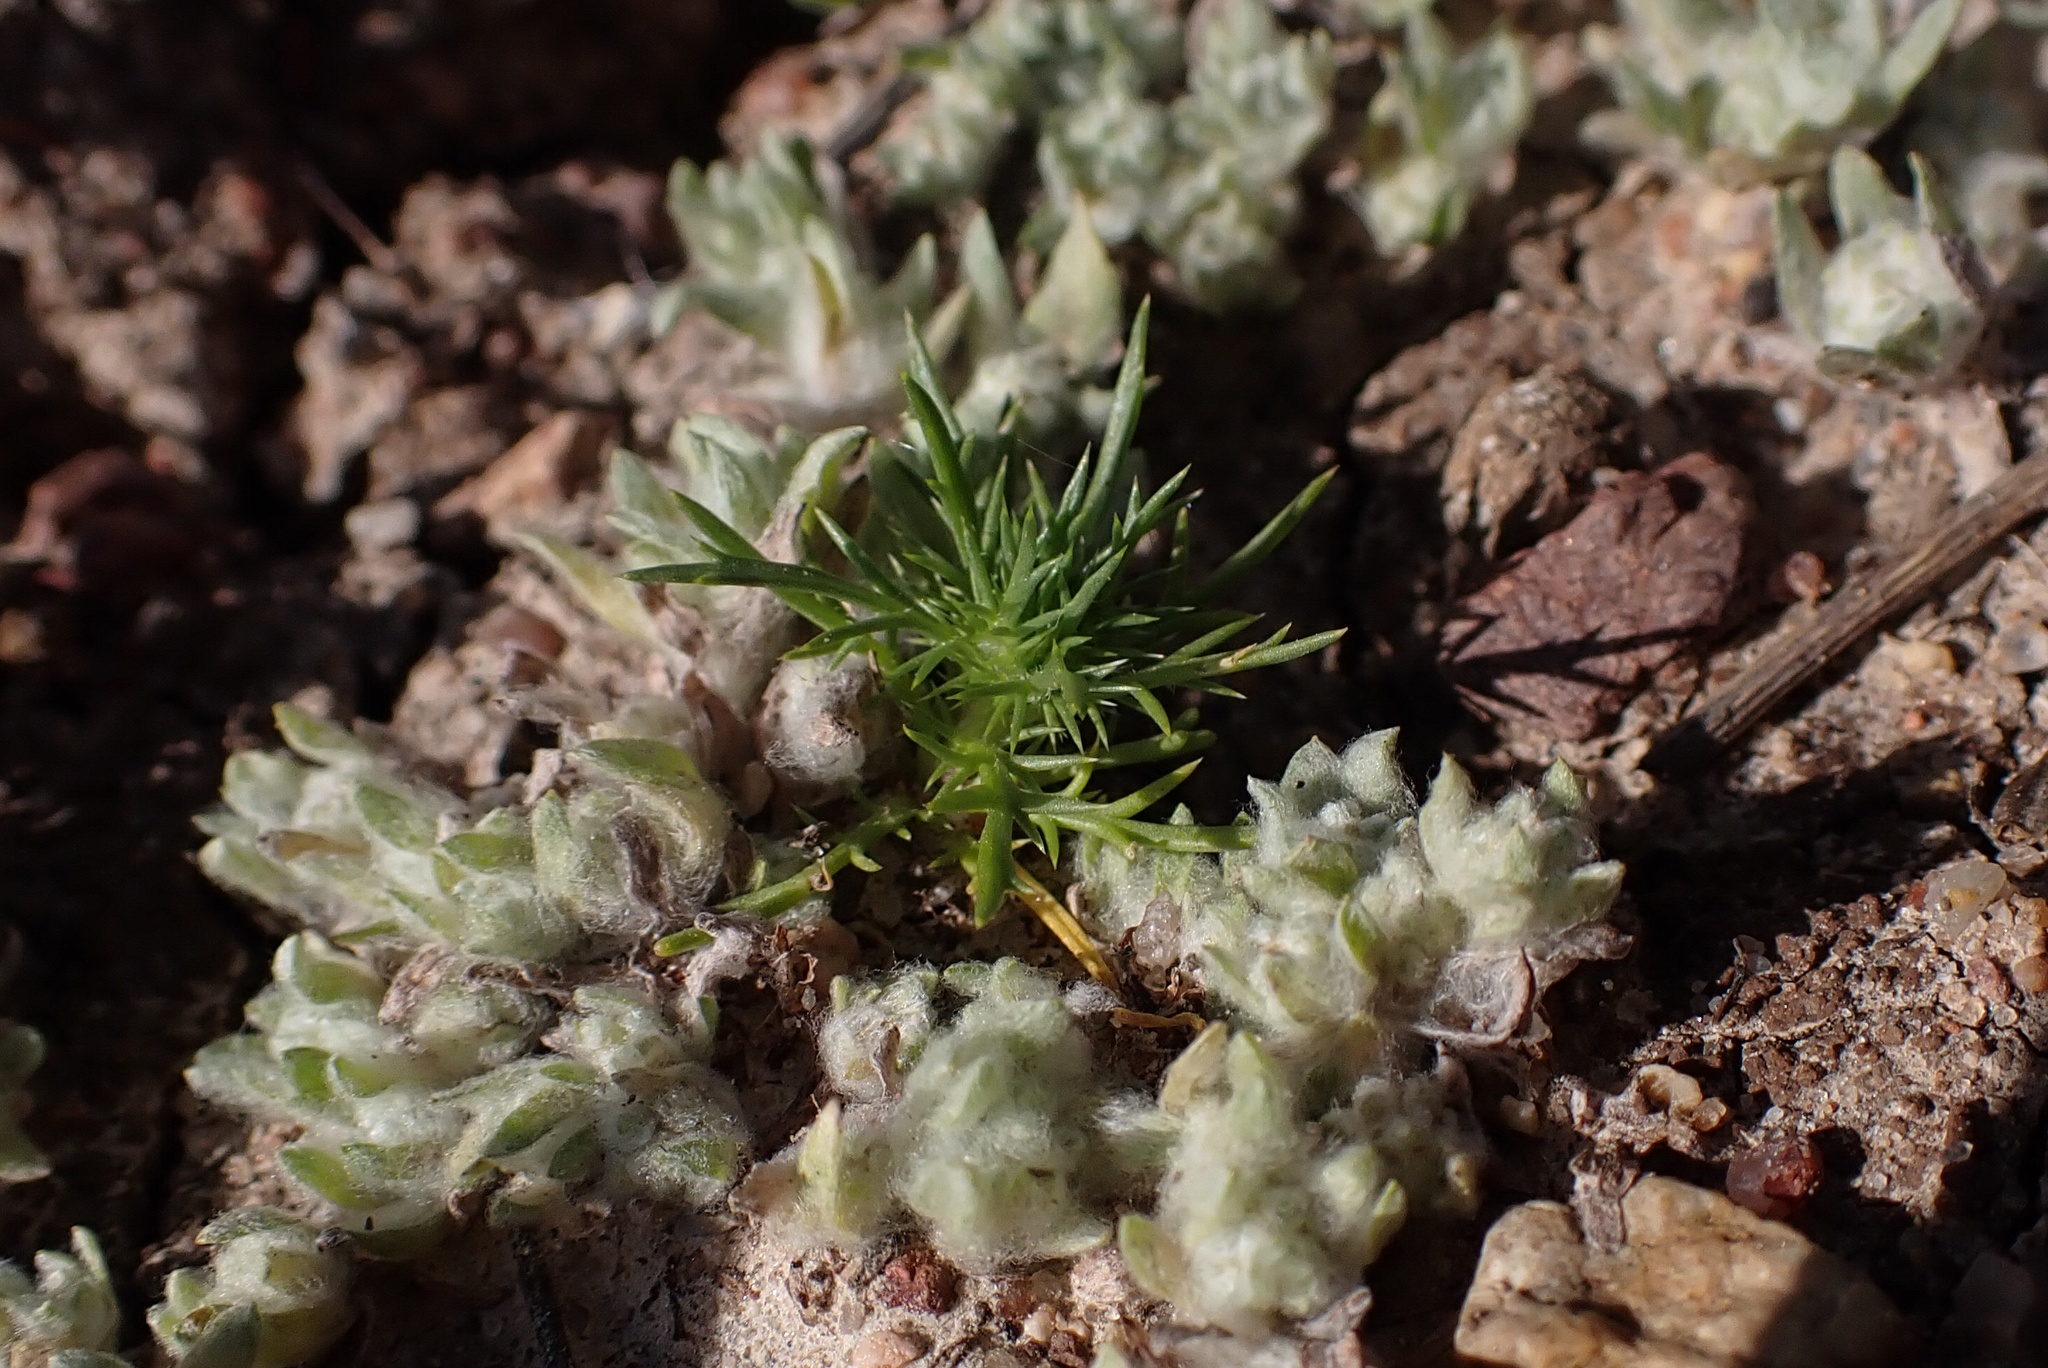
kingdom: Plantae
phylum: Tracheophyta
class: Magnoliopsida
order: Ericales
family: Polemoniaceae
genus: Navarretia
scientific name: Navarretia fossalis
